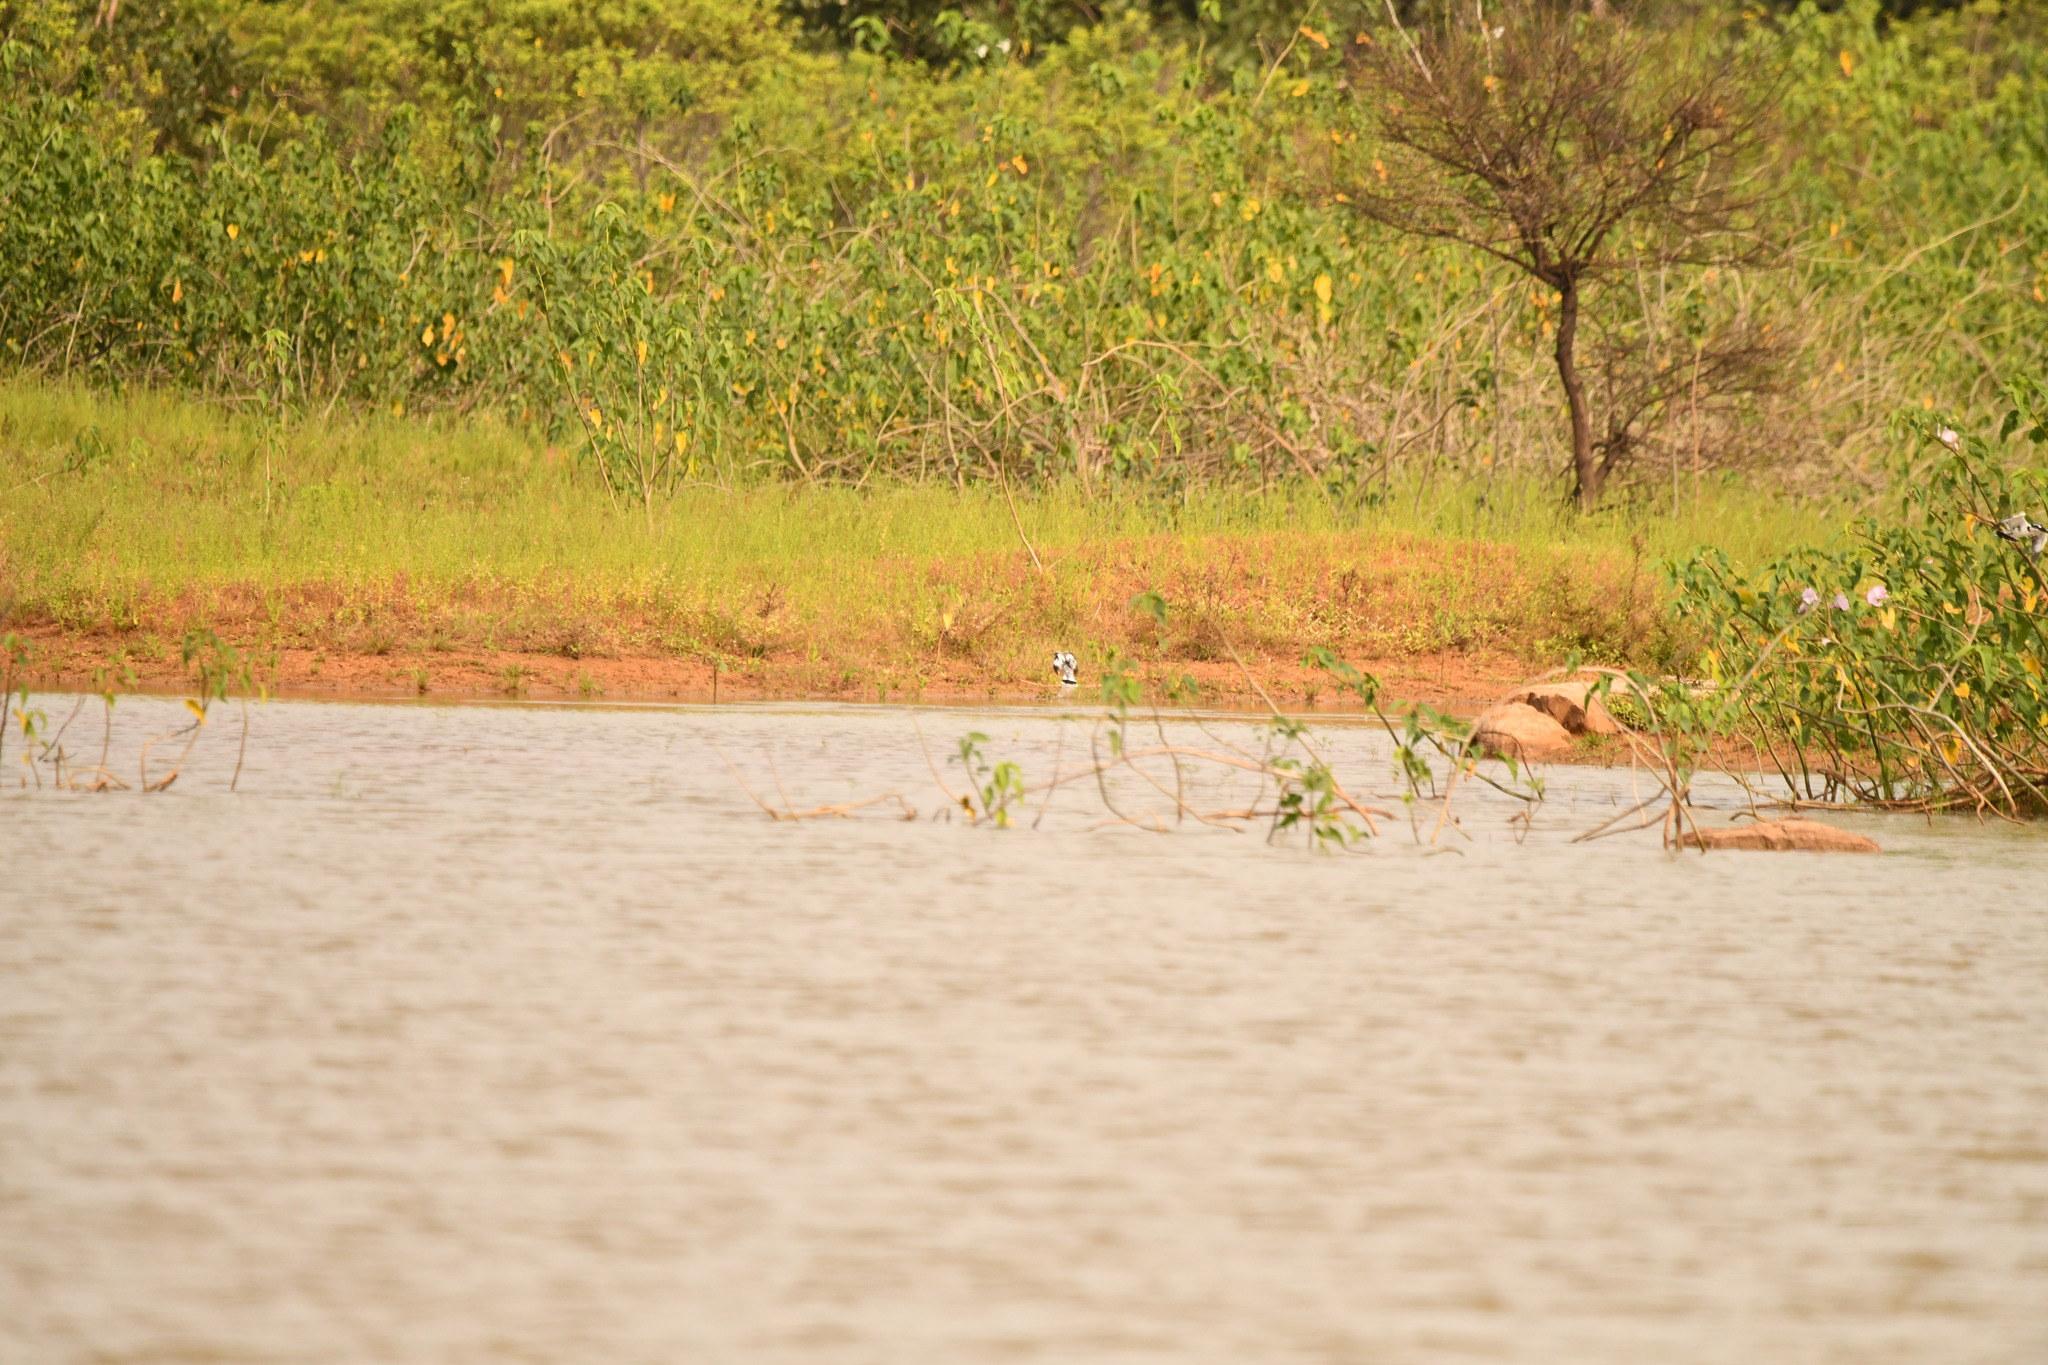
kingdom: Animalia
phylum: Chordata
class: Aves
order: Coraciiformes
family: Alcedinidae
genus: Ceryle
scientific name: Ceryle rudis
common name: Pied kingfisher
